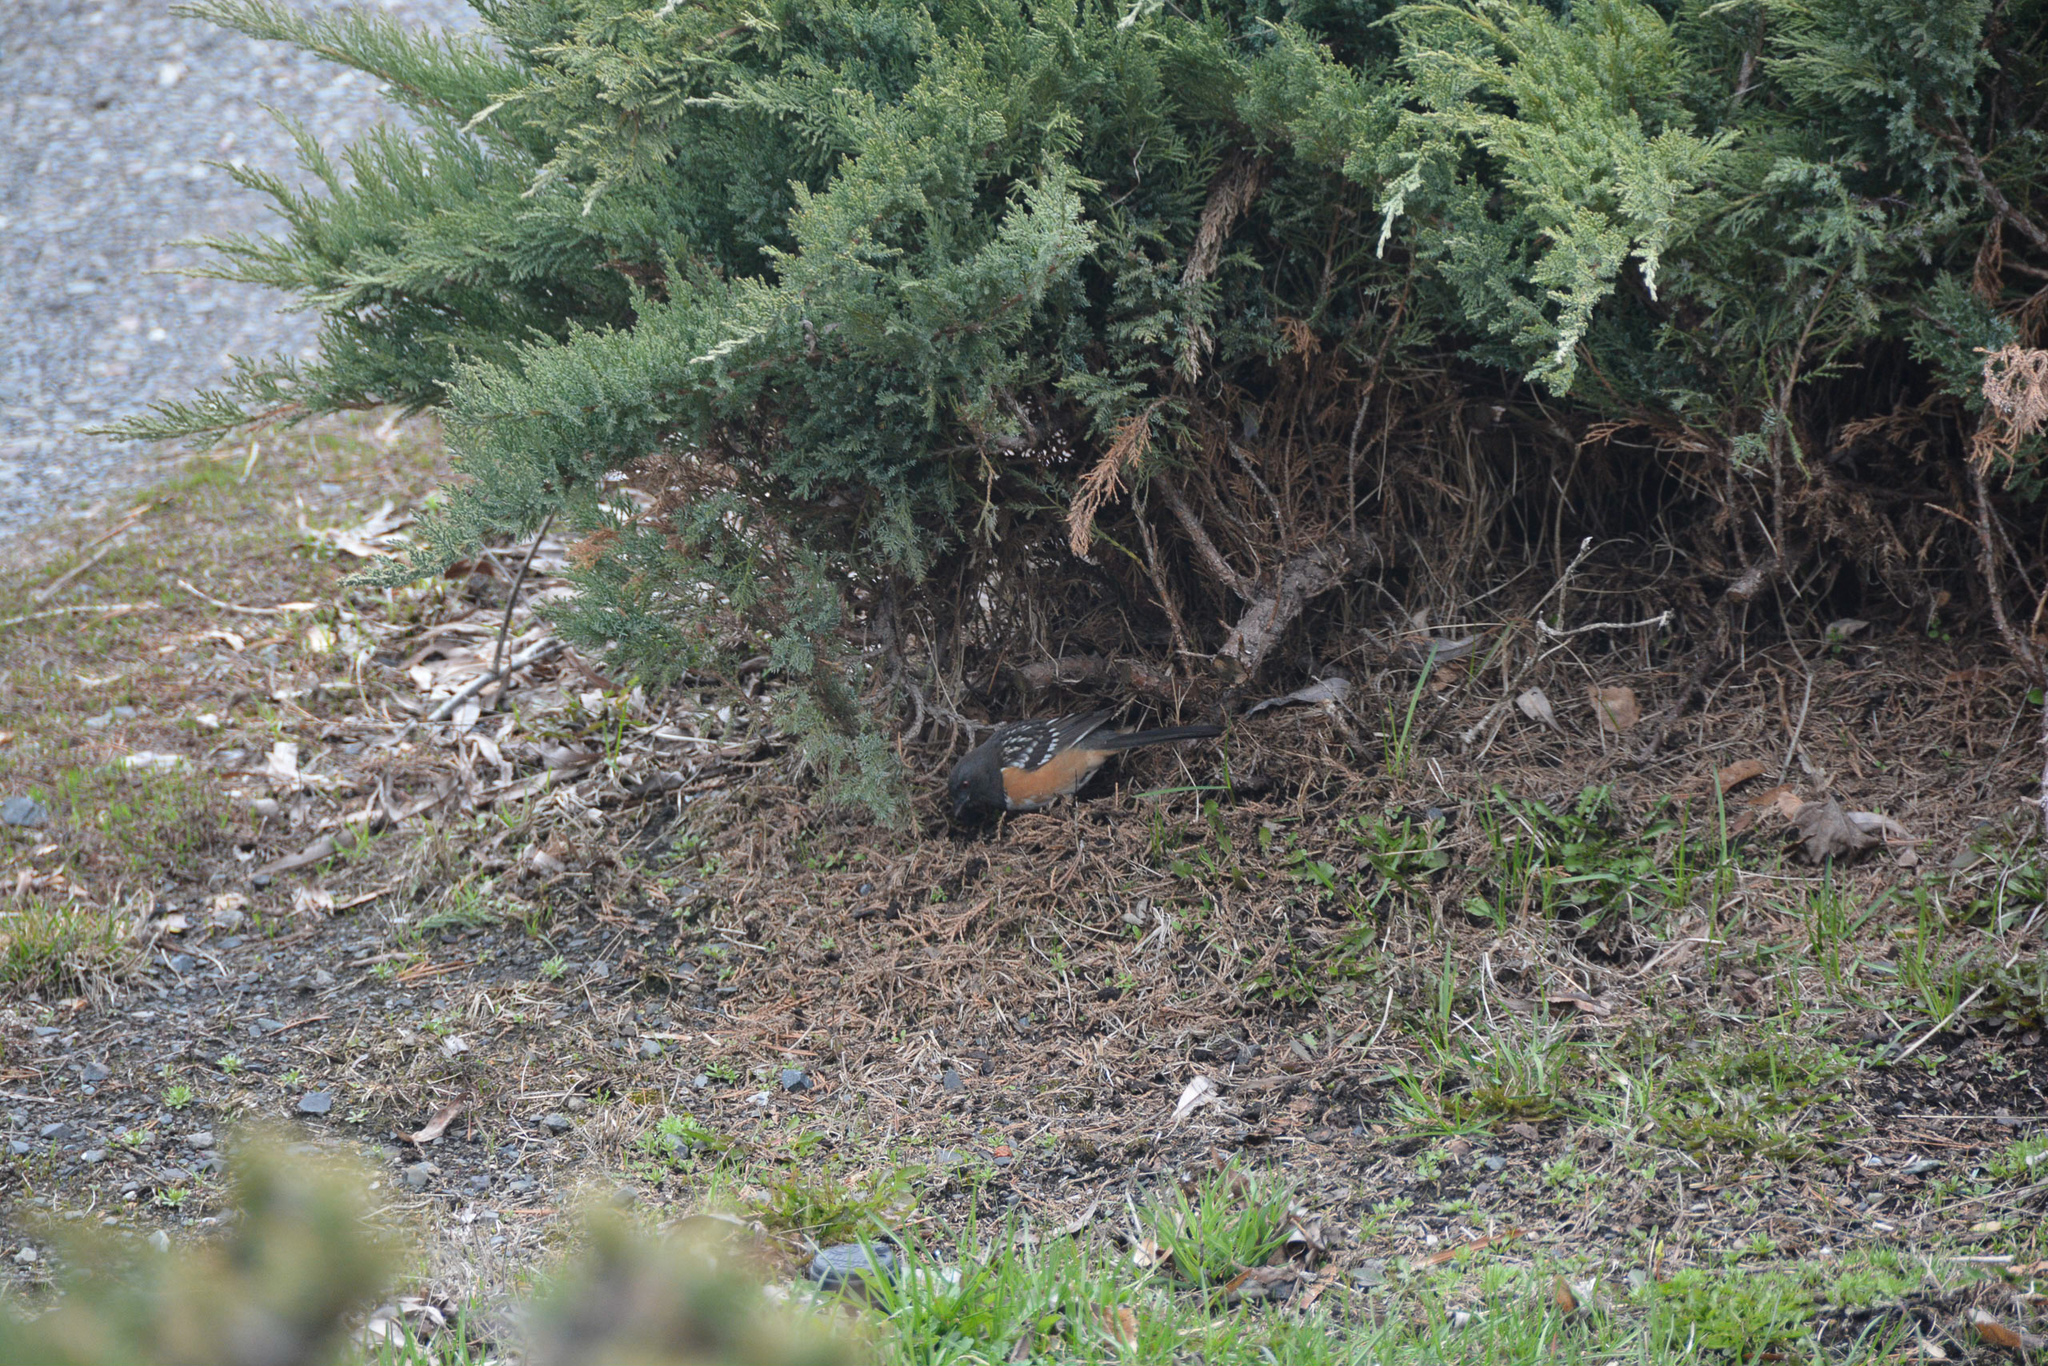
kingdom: Animalia
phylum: Chordata
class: Aves
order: Passeriformes
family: Passerellidae
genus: Pipilo
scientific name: Pipilo maculatus
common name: Spotted towhee
